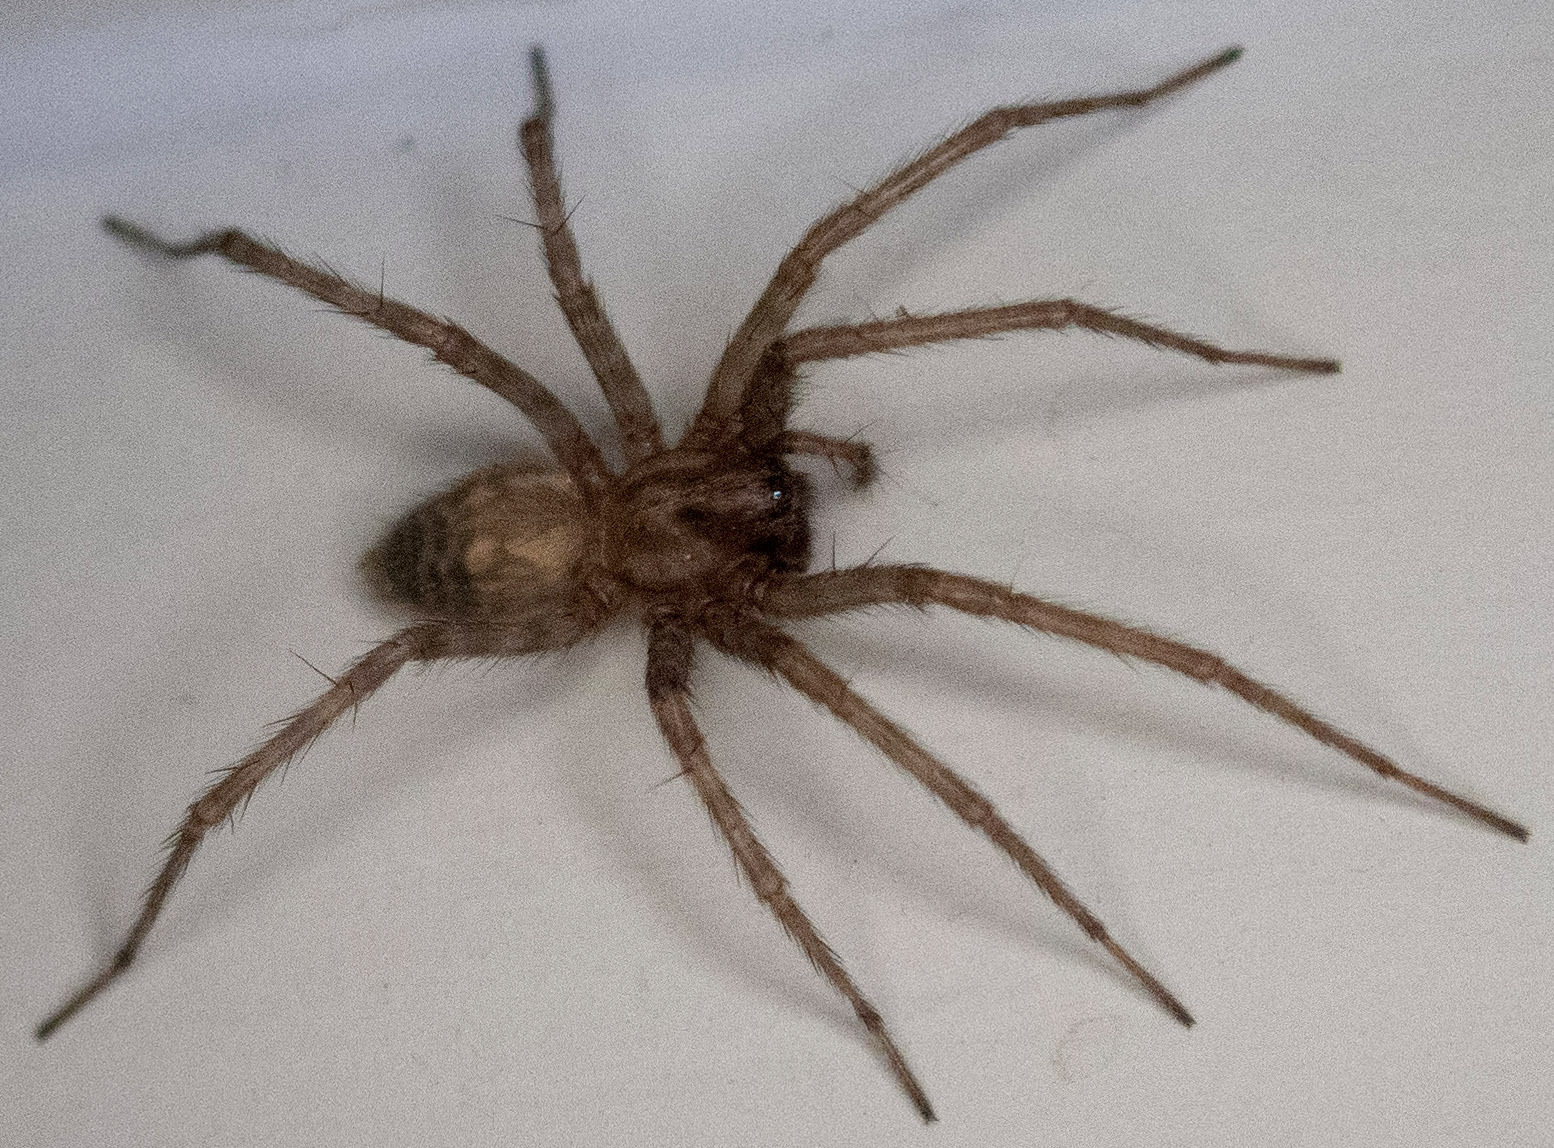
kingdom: Animalia
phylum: Arthropoda
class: Arachnida
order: Araneae
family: Agelenidae
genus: Tegenaria
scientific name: Tegenaria domestica
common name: Barn funnel weaver
